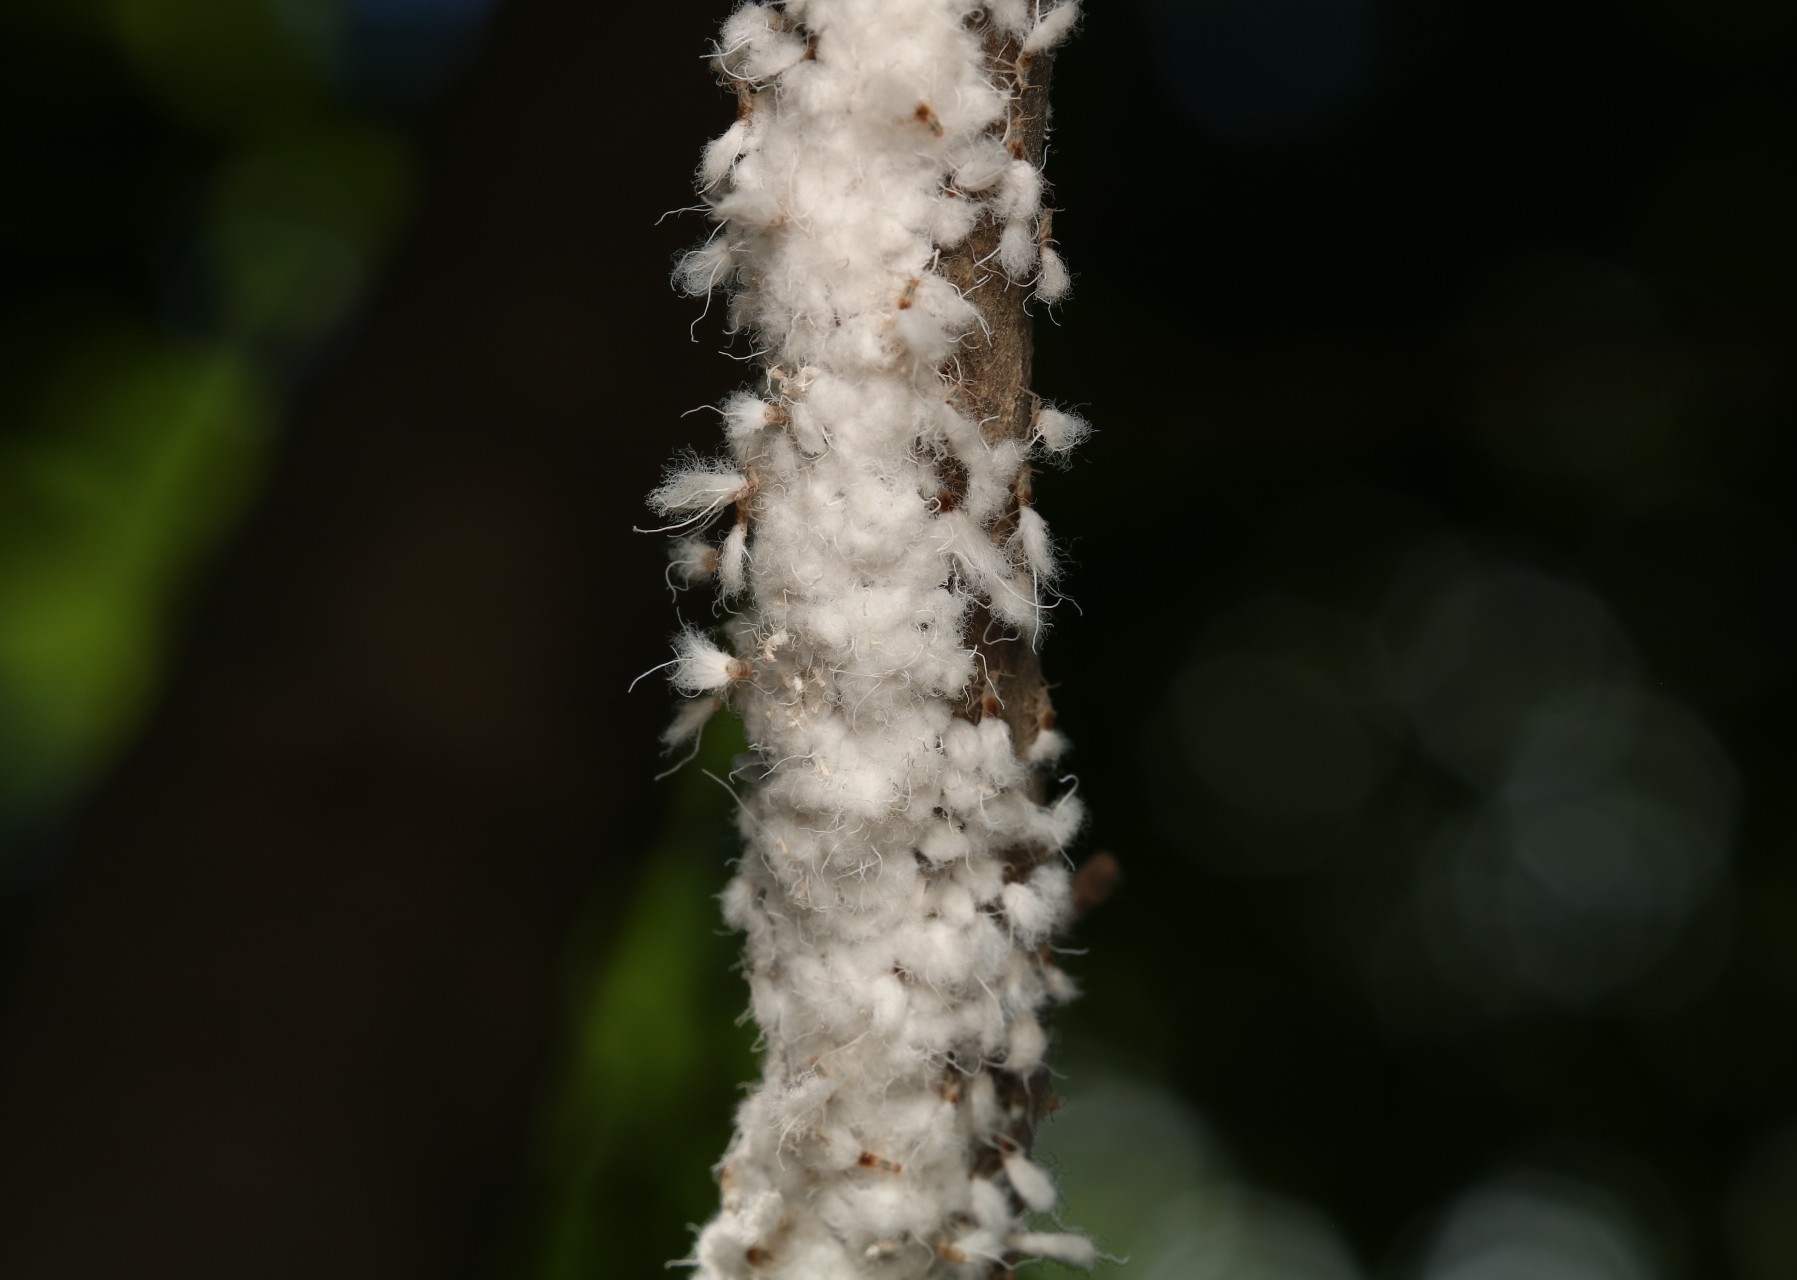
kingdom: Animalia
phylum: Arthropoda
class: Insecta
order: Hemiptera
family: Aphididae
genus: Grylloprociphilus
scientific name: Grylloprociphilus imbricator
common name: Beech blight aphid
